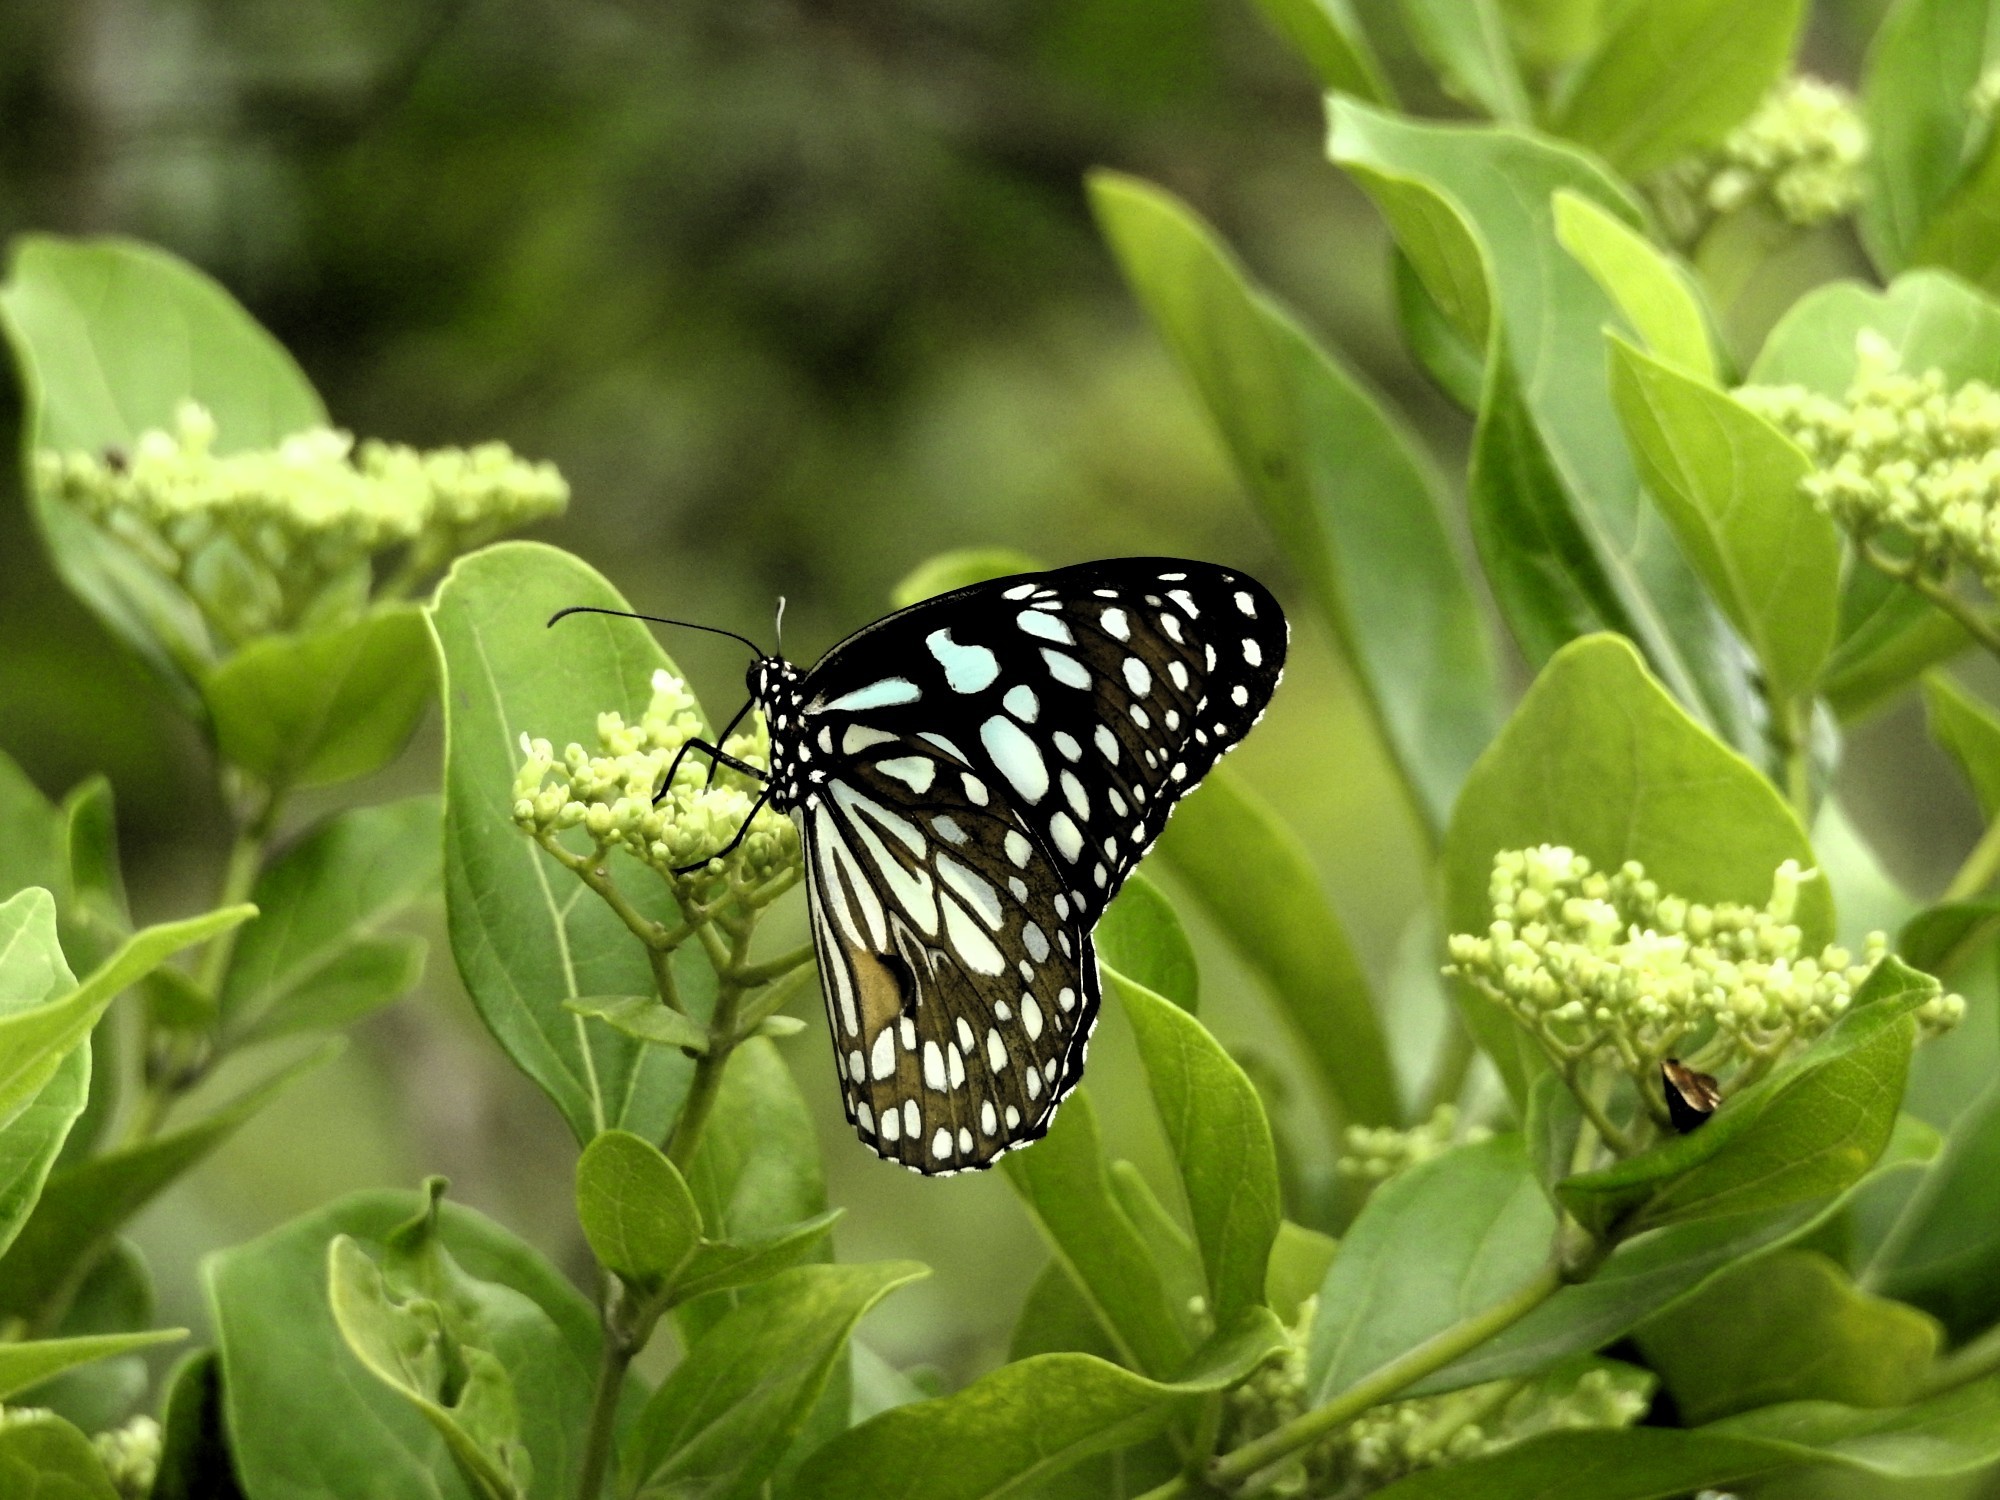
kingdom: Animalia
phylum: Arthropoda
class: Insecta
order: Lepidoptera
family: Nymphalidae
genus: Tirumala
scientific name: Tirumala limniace
